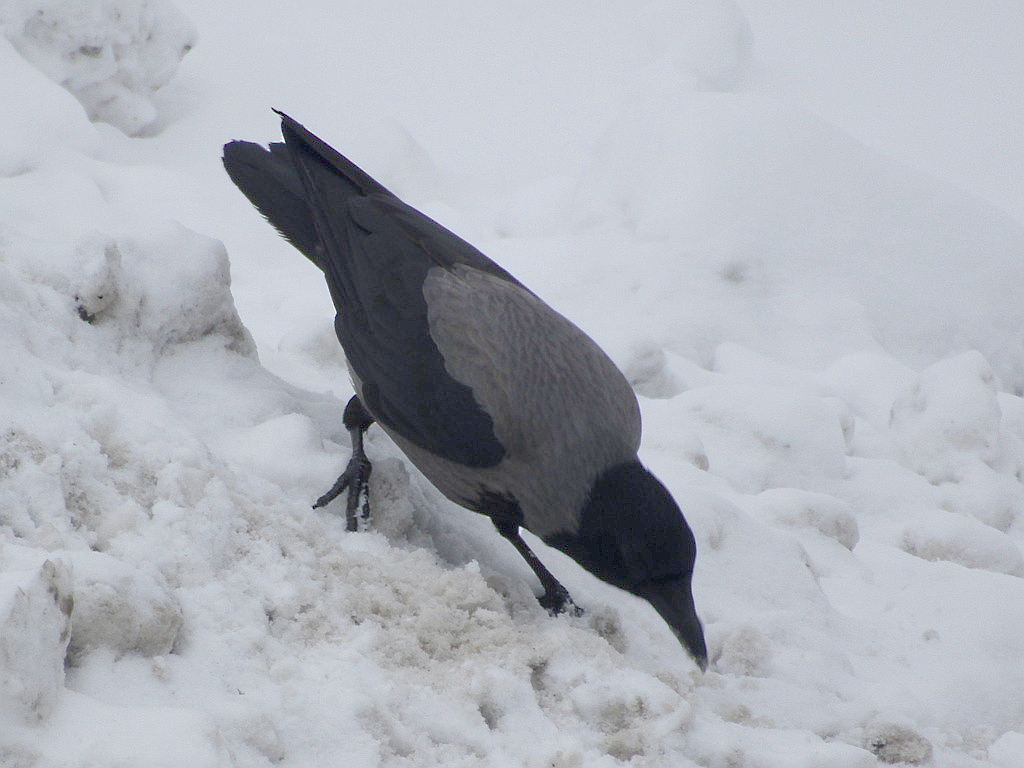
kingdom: Animalia
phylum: Chordata
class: Aves
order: Passeriformes
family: Corvidae
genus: Corvus
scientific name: Corvus cornix
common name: Hooded crow
